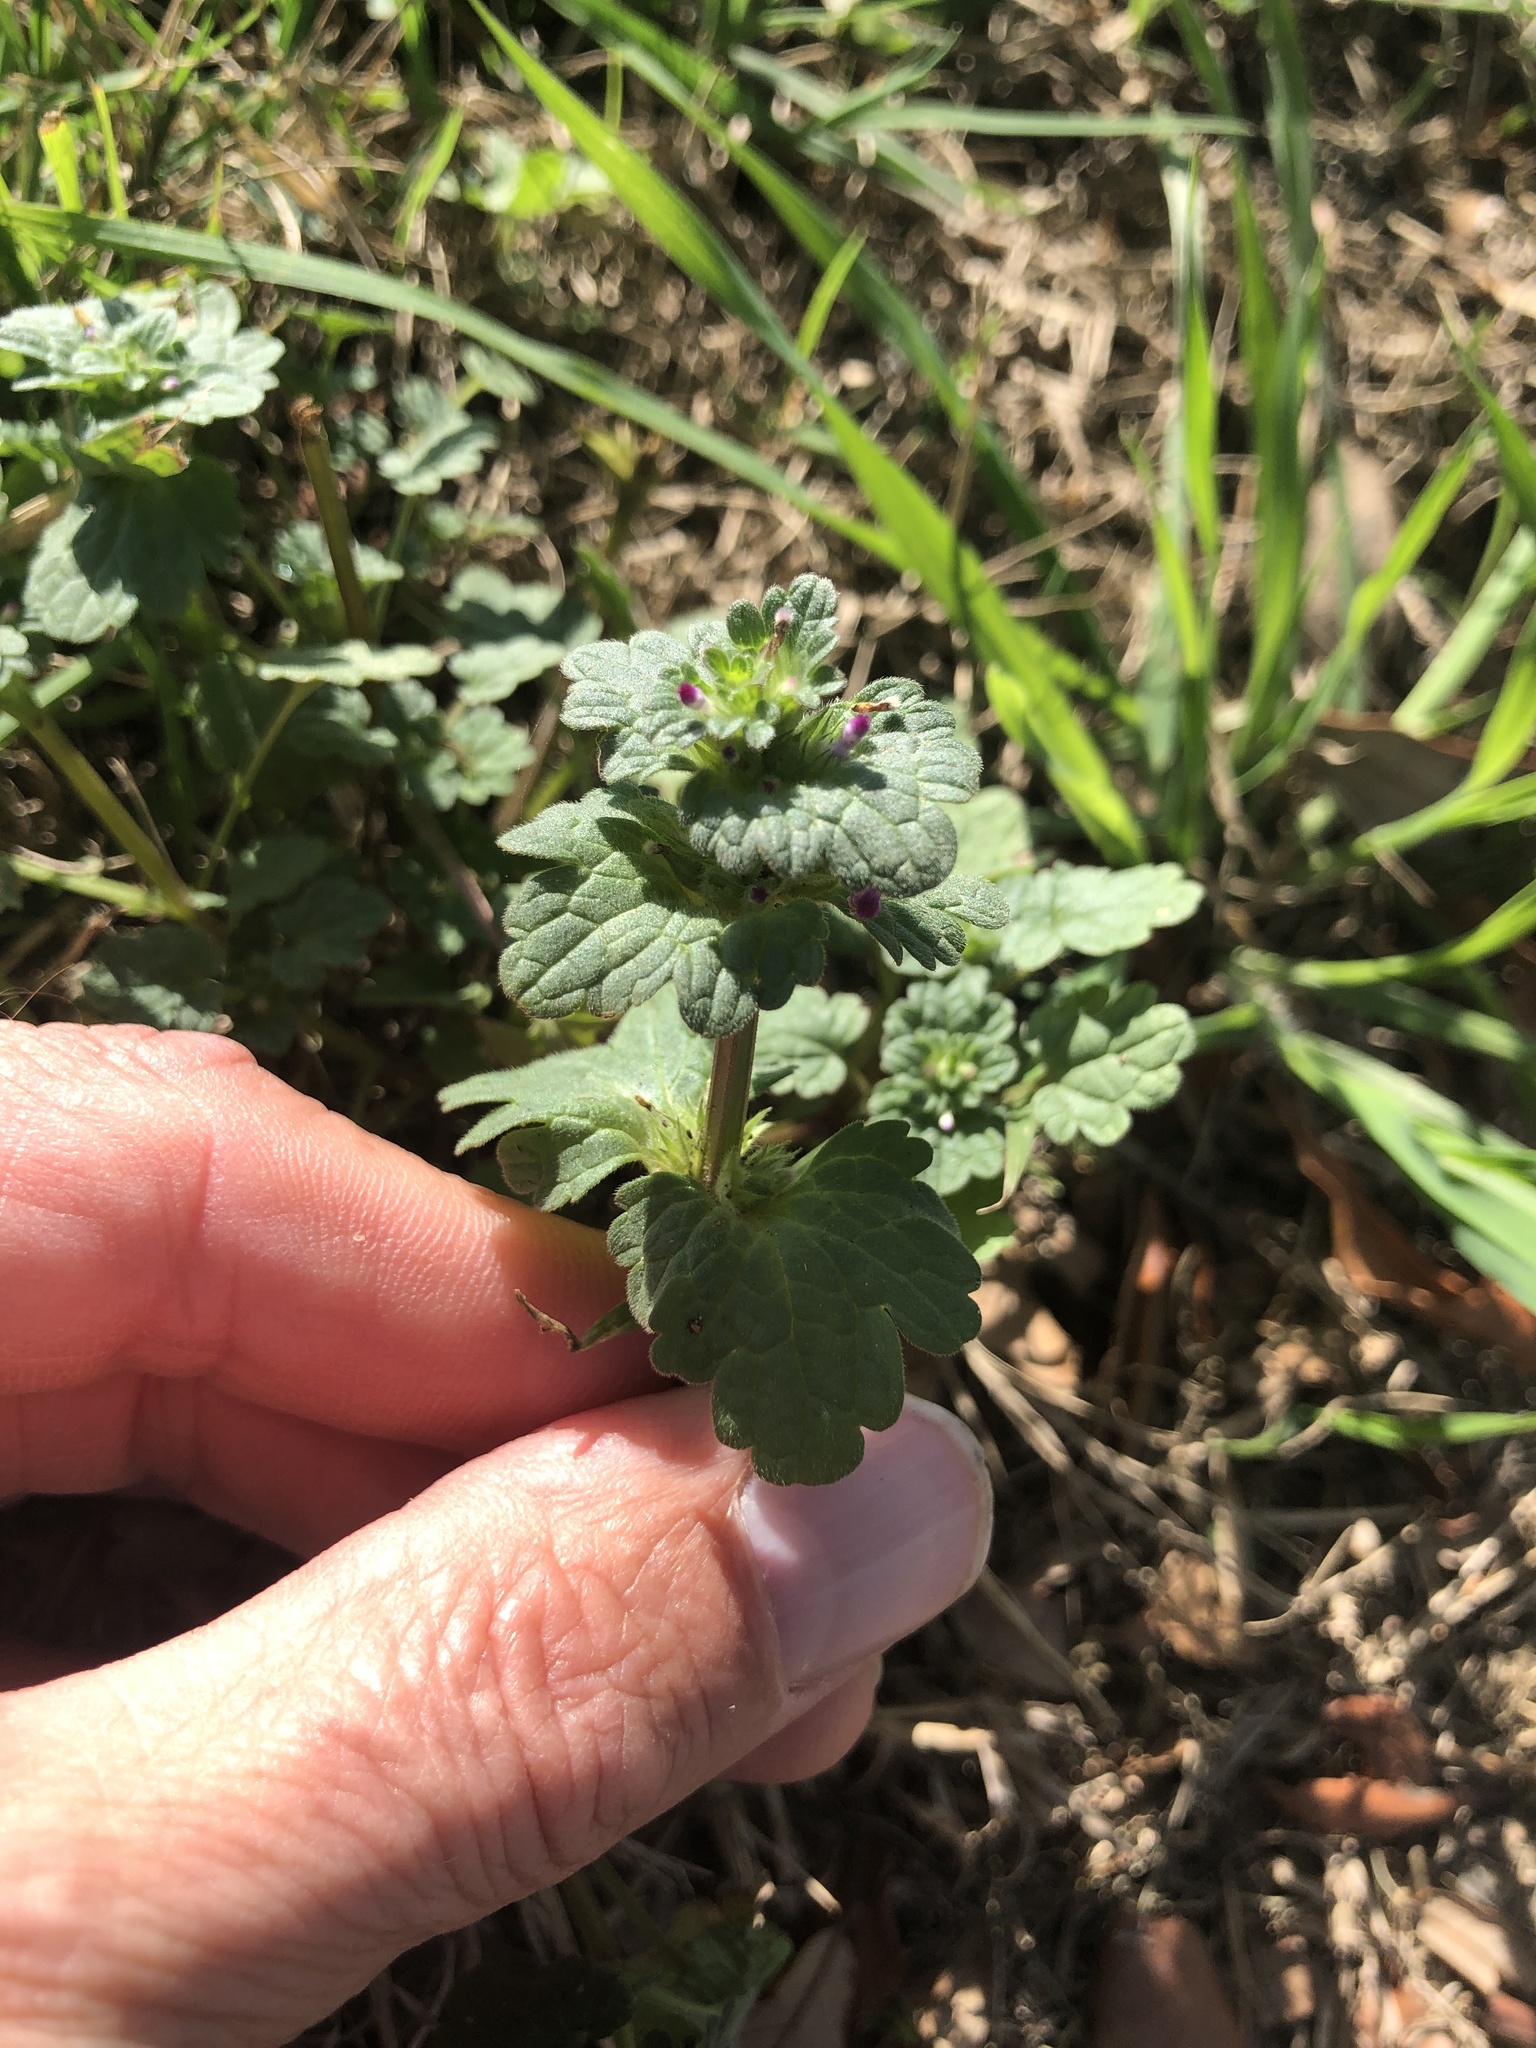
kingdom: Plantae
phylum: Tracheophyta
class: Magnoliopsida
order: Lamiales
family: Lamiaceae
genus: Lamium
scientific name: Lamium amplexicaule
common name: Henbit dead-nettle
